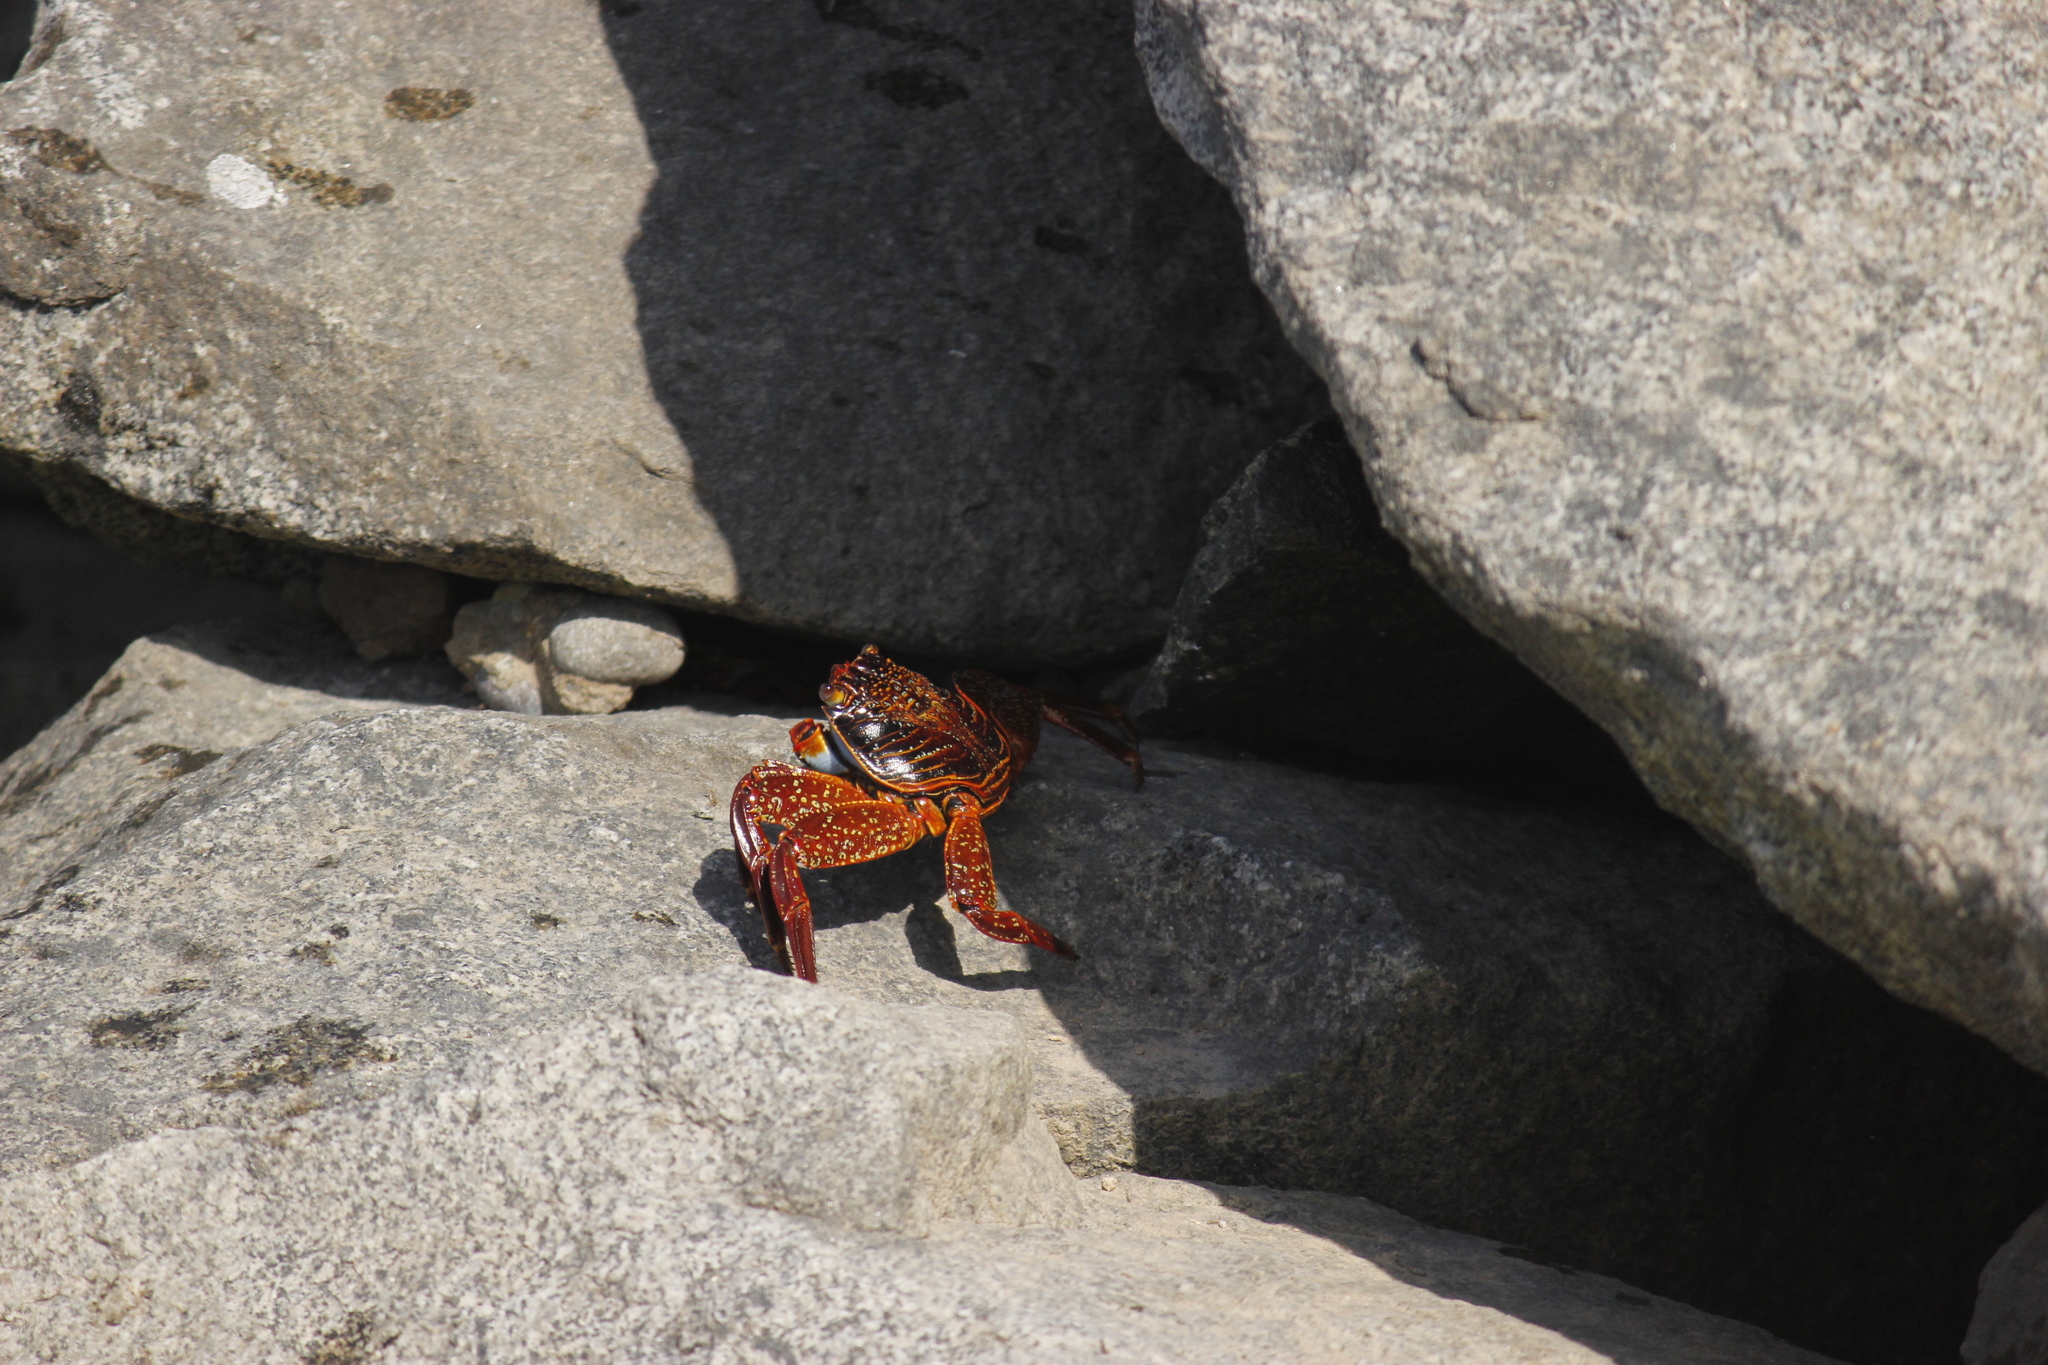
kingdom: Animalia
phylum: Arthropoda
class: Malacostraca
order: Decapoda
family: Grapsidae
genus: Grapsus
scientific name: Grapsus grapsus
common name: Sally lightfoot
